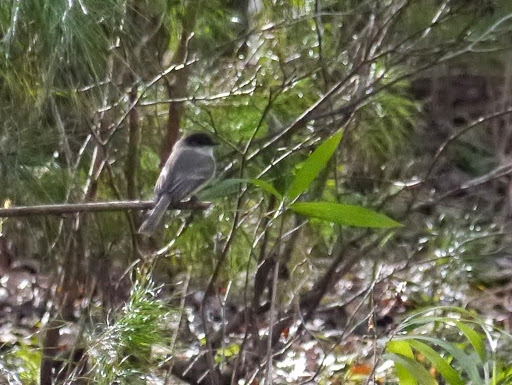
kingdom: Animalia
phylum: Chordata
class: Aves
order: Passeriformes
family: Tyrannidae
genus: Sayornis
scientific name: Sayornis phoebe
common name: Eastern phoebe
